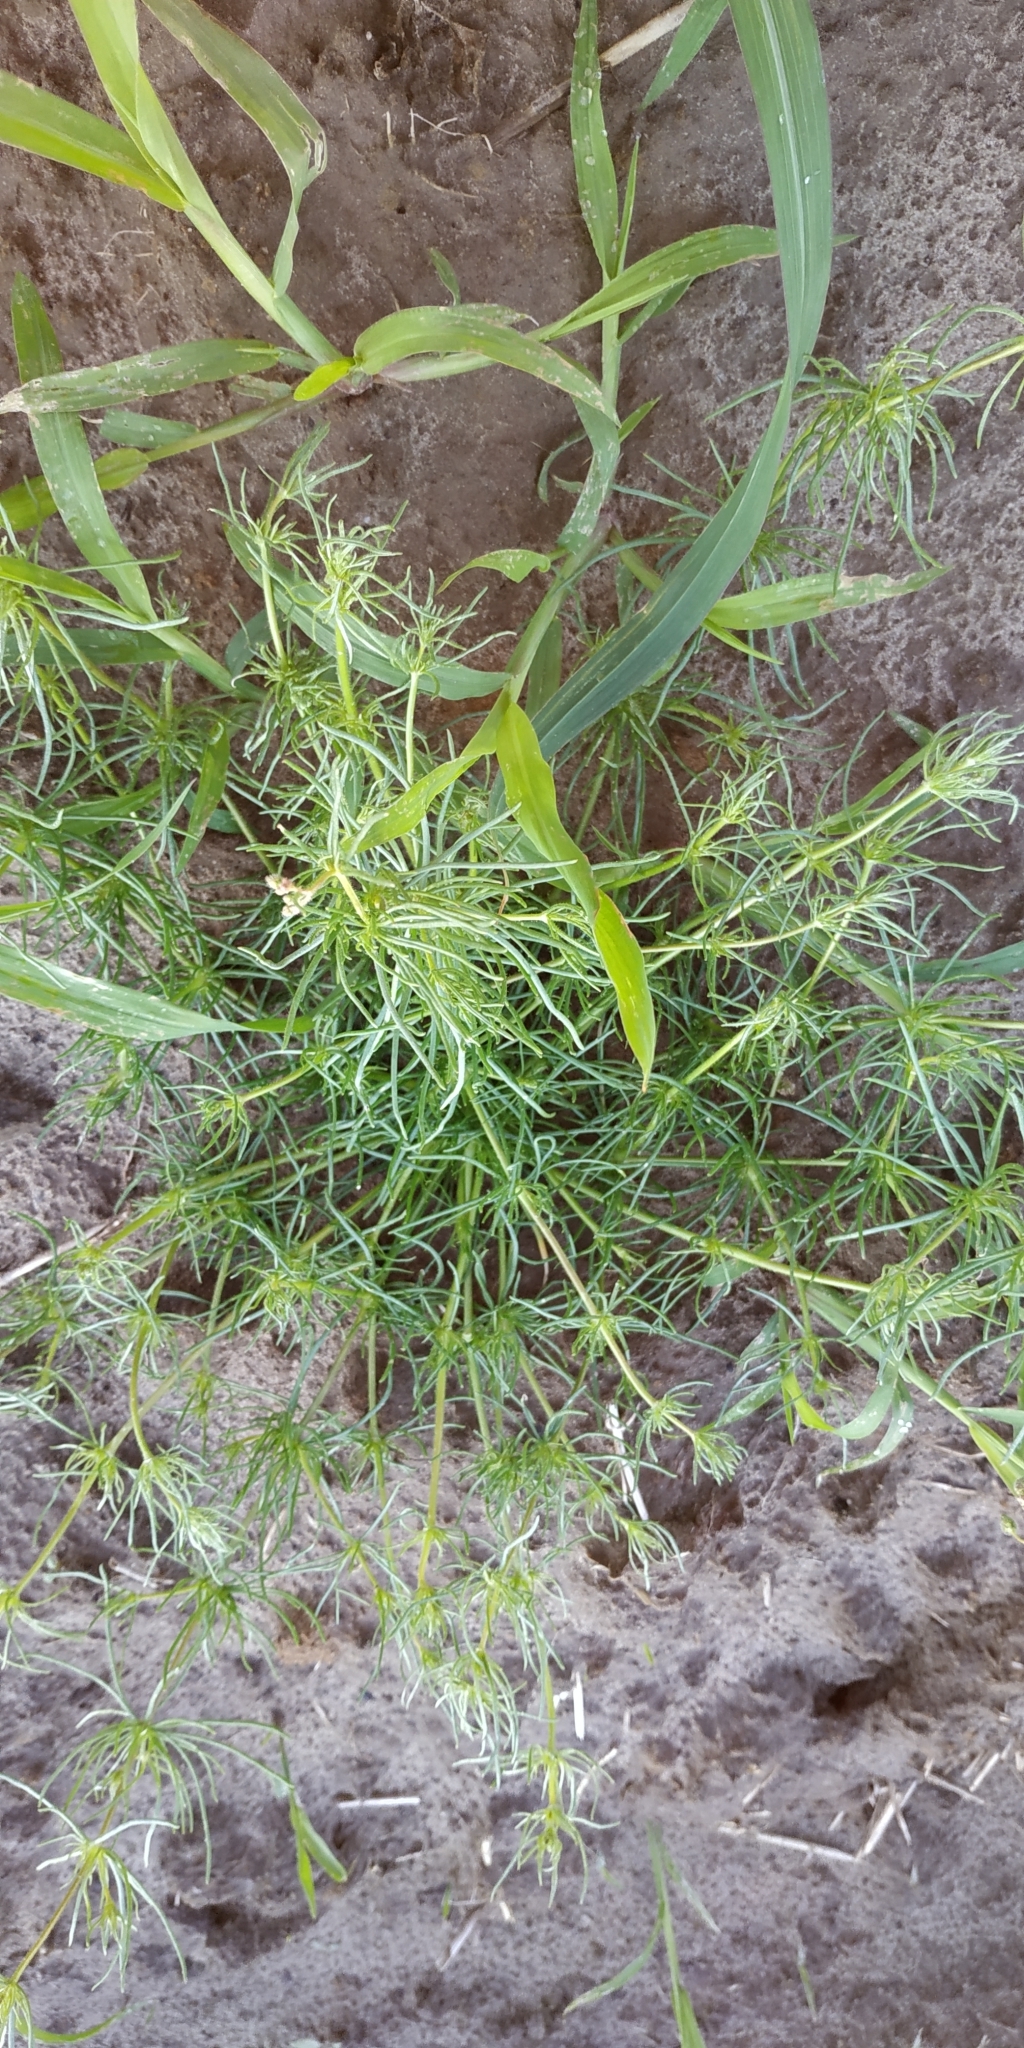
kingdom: Plantae
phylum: Tracheophyta
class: Magnoliopsida
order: Caryophyllales
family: Caryophyllaceae
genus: Spergula
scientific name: Spergula arvensis
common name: Corn spurrey
